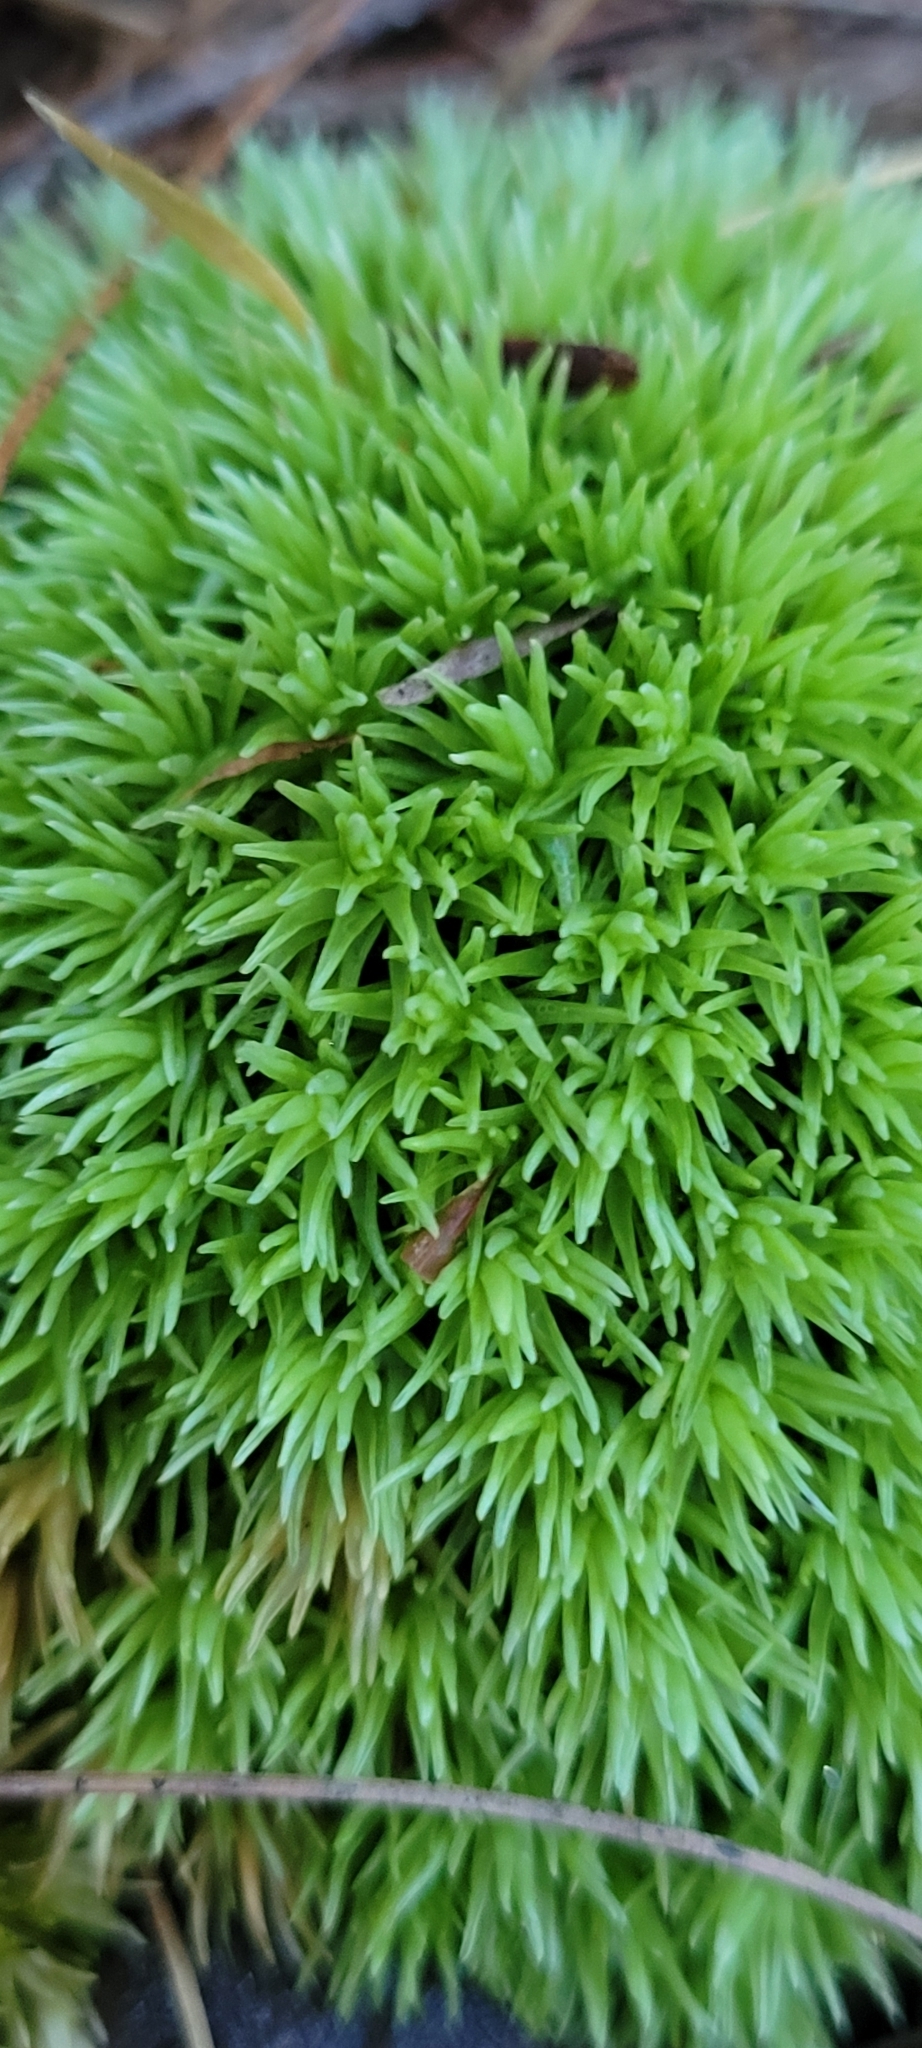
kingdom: Plantae
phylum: Bryophyta
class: Bryopsida
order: Dicranales
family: Leucobryaceae
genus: Leucobryum
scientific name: Leucobryum glaucum
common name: Large white-moss
